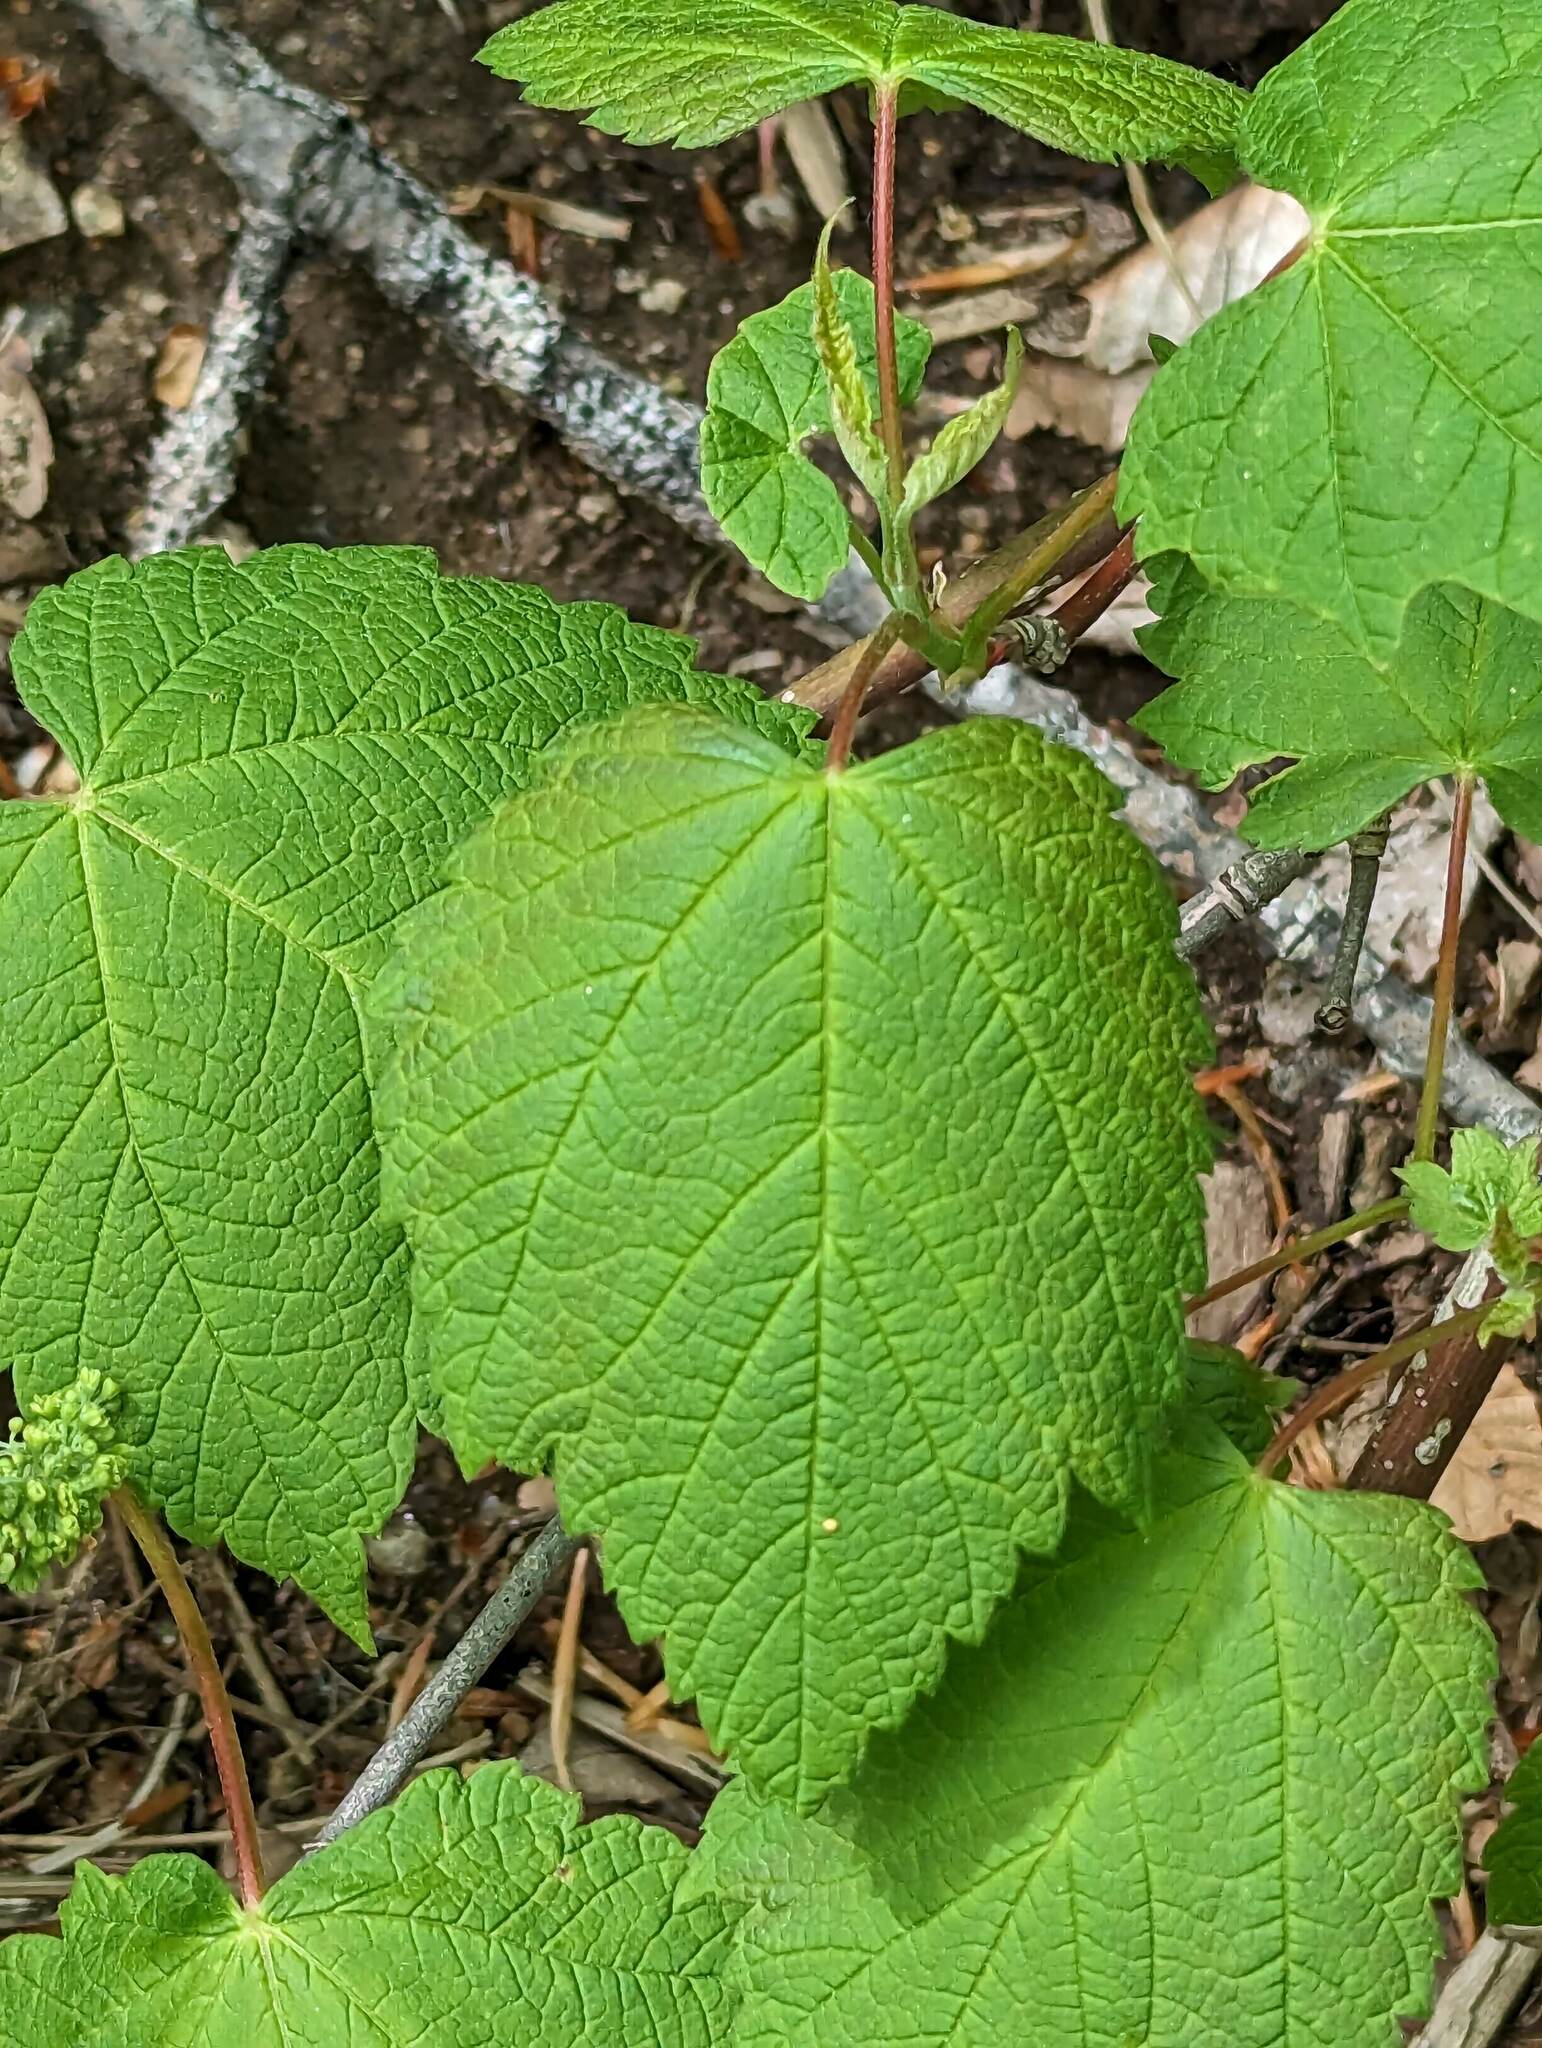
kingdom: Plantae
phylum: Tracheophyta
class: Magnoliopsida
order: Sapindales
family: Sapindaceae
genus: Acer
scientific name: Acer spicatum
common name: Mountain maple
